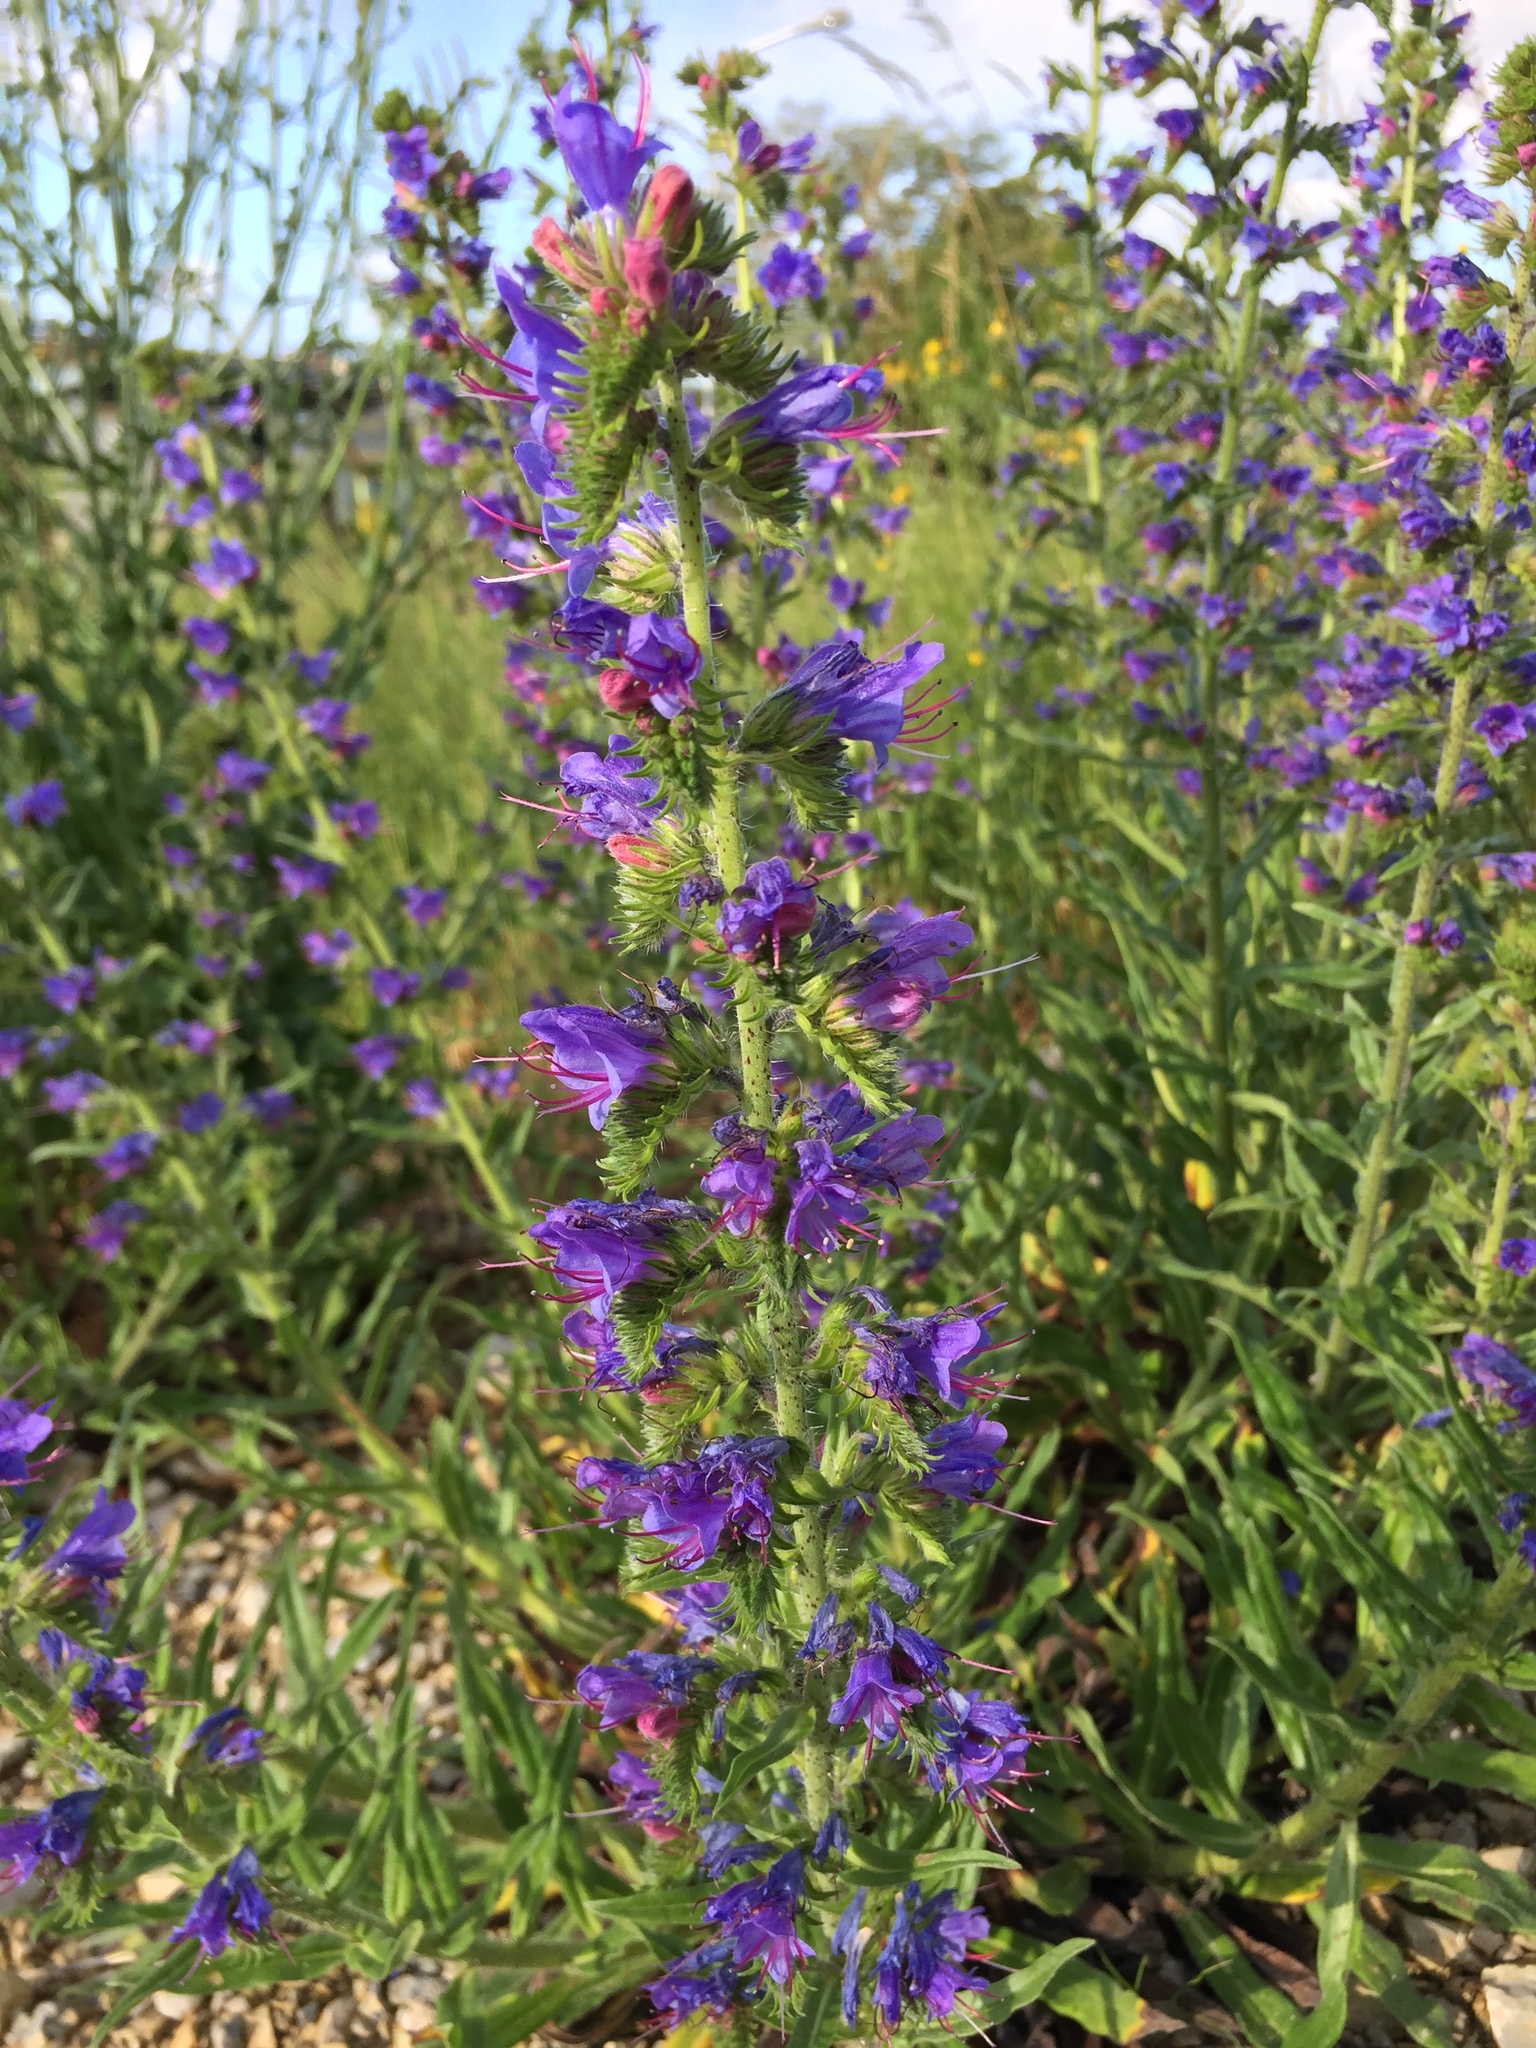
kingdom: Plantae
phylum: Tracheophyta
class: Magnoliopsida
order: Boraginales
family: Boraginaceae
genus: Echium
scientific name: Echium vulgare
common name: Common viper's bugloss
